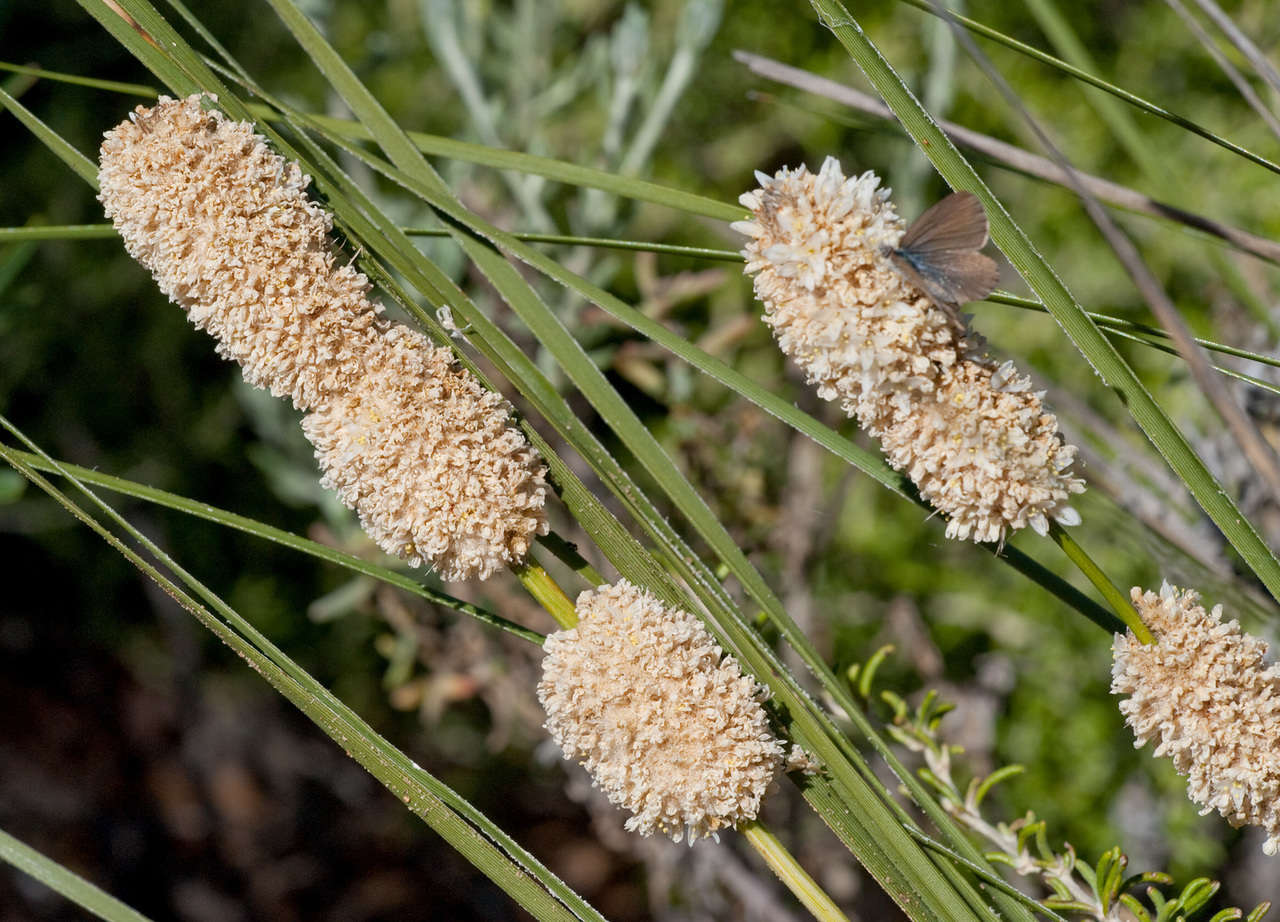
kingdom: Plantae
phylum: Tracheophyta
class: Liliopsida
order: Asparagales
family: Asparagaceae
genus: Lomandra
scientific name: Lomandra leucocephala
